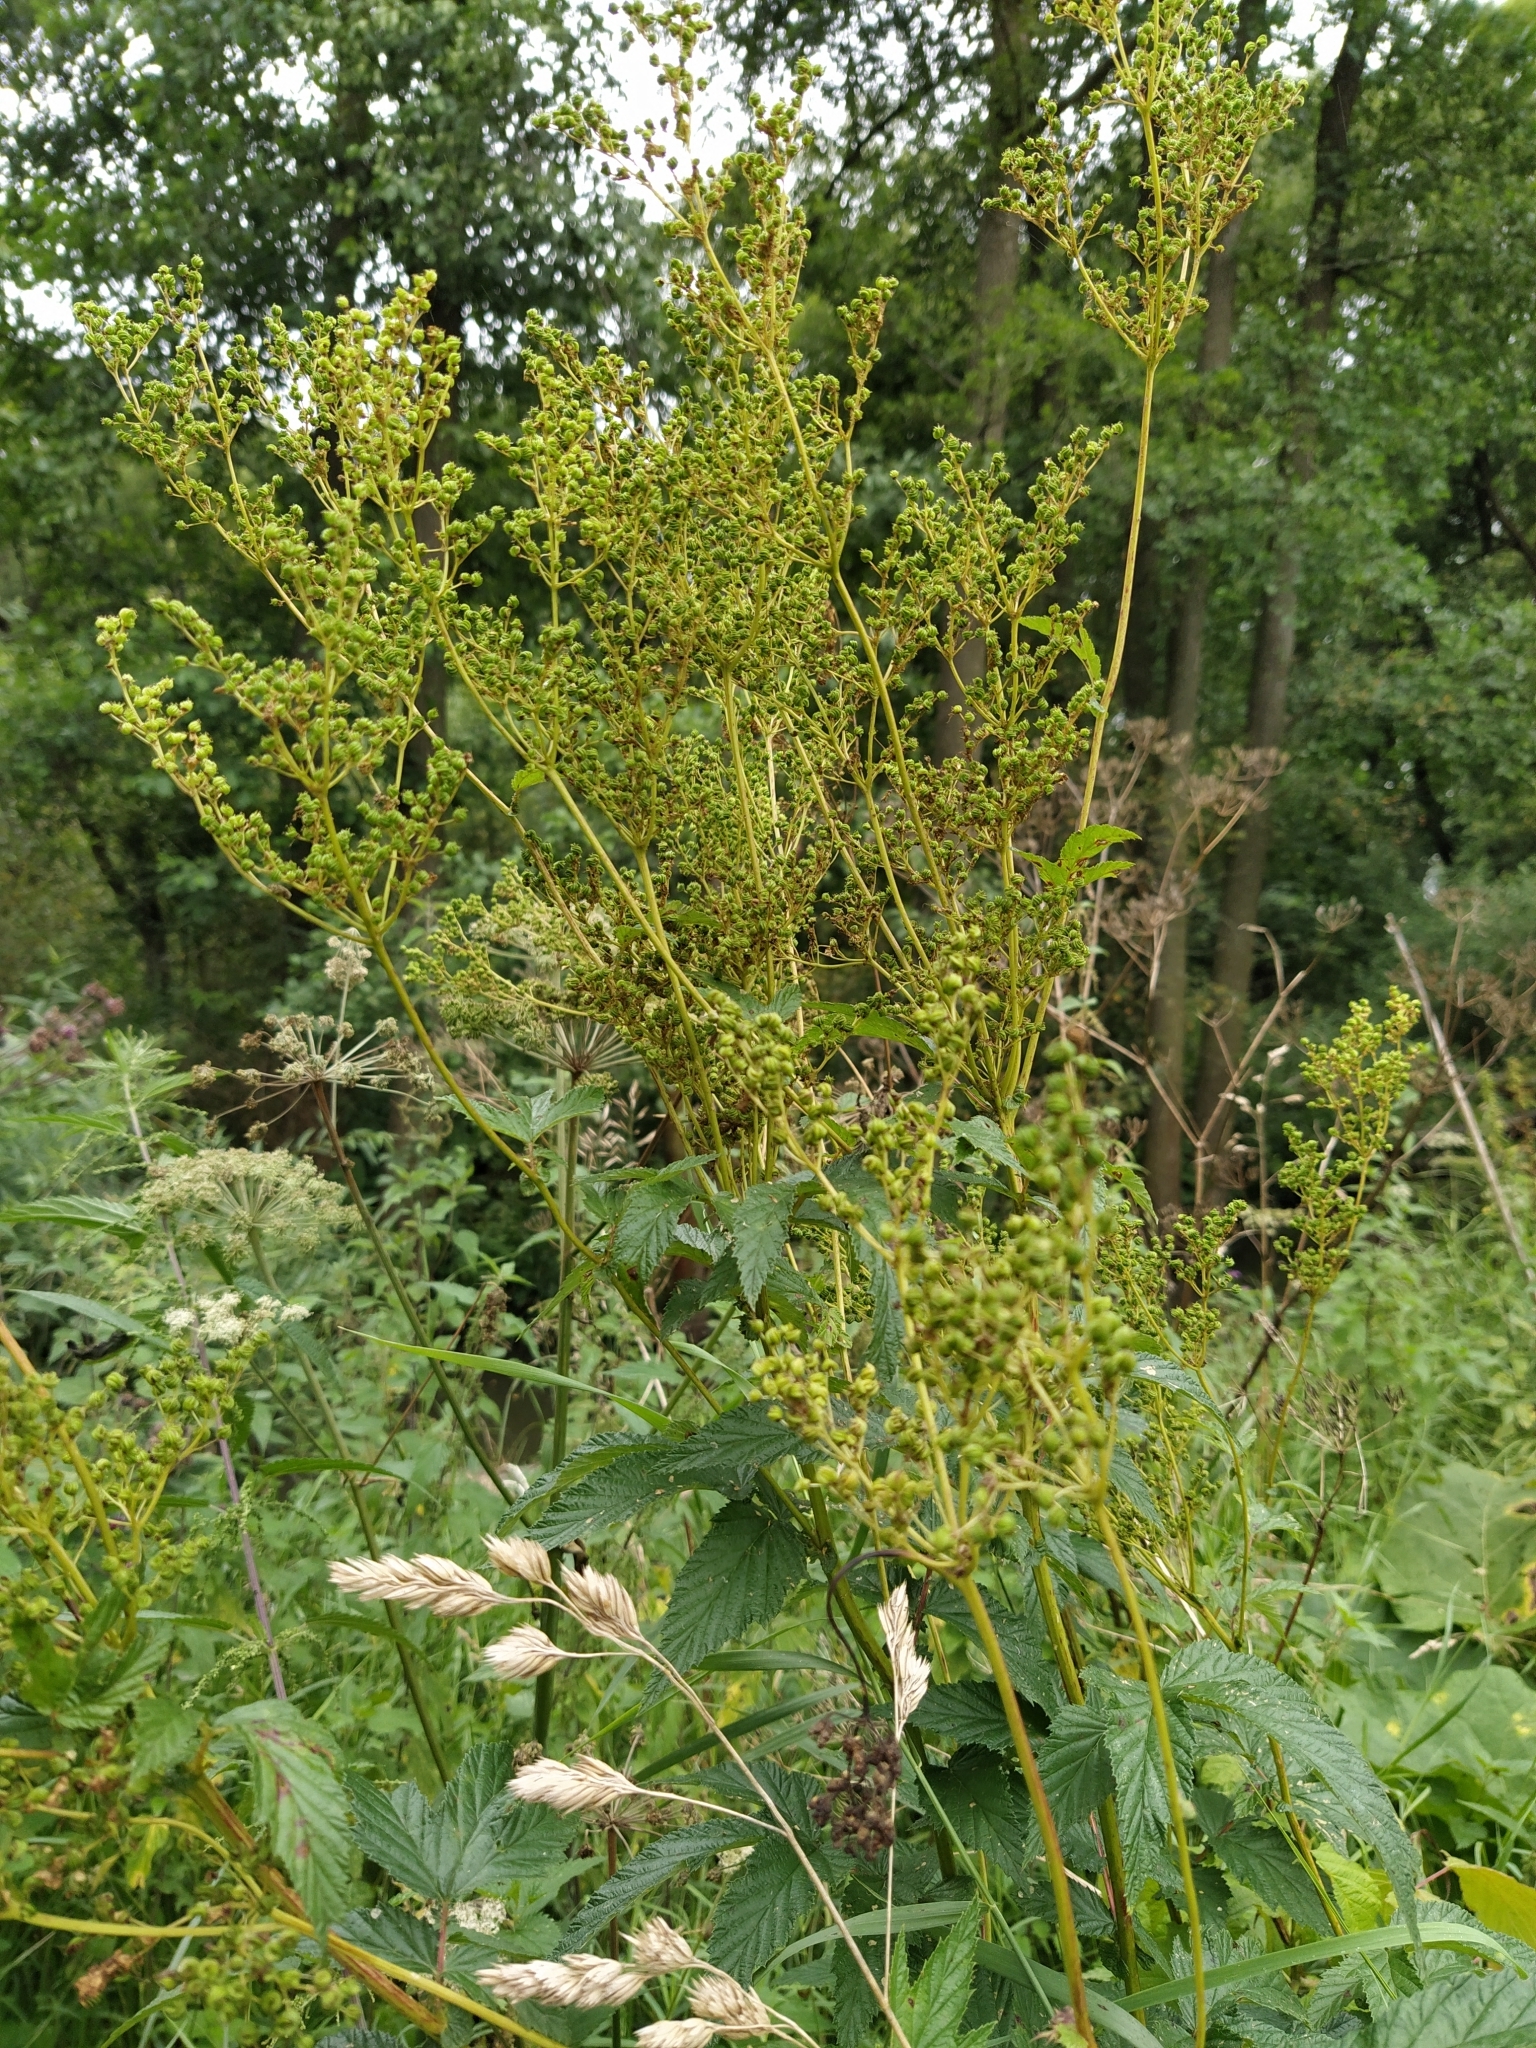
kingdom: Plantae
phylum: Tracheophyta
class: Magnoliopsida
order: Rosales
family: Rosaceae
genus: Filipendula
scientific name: Filipendula ulmaria
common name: Meadowsweet
